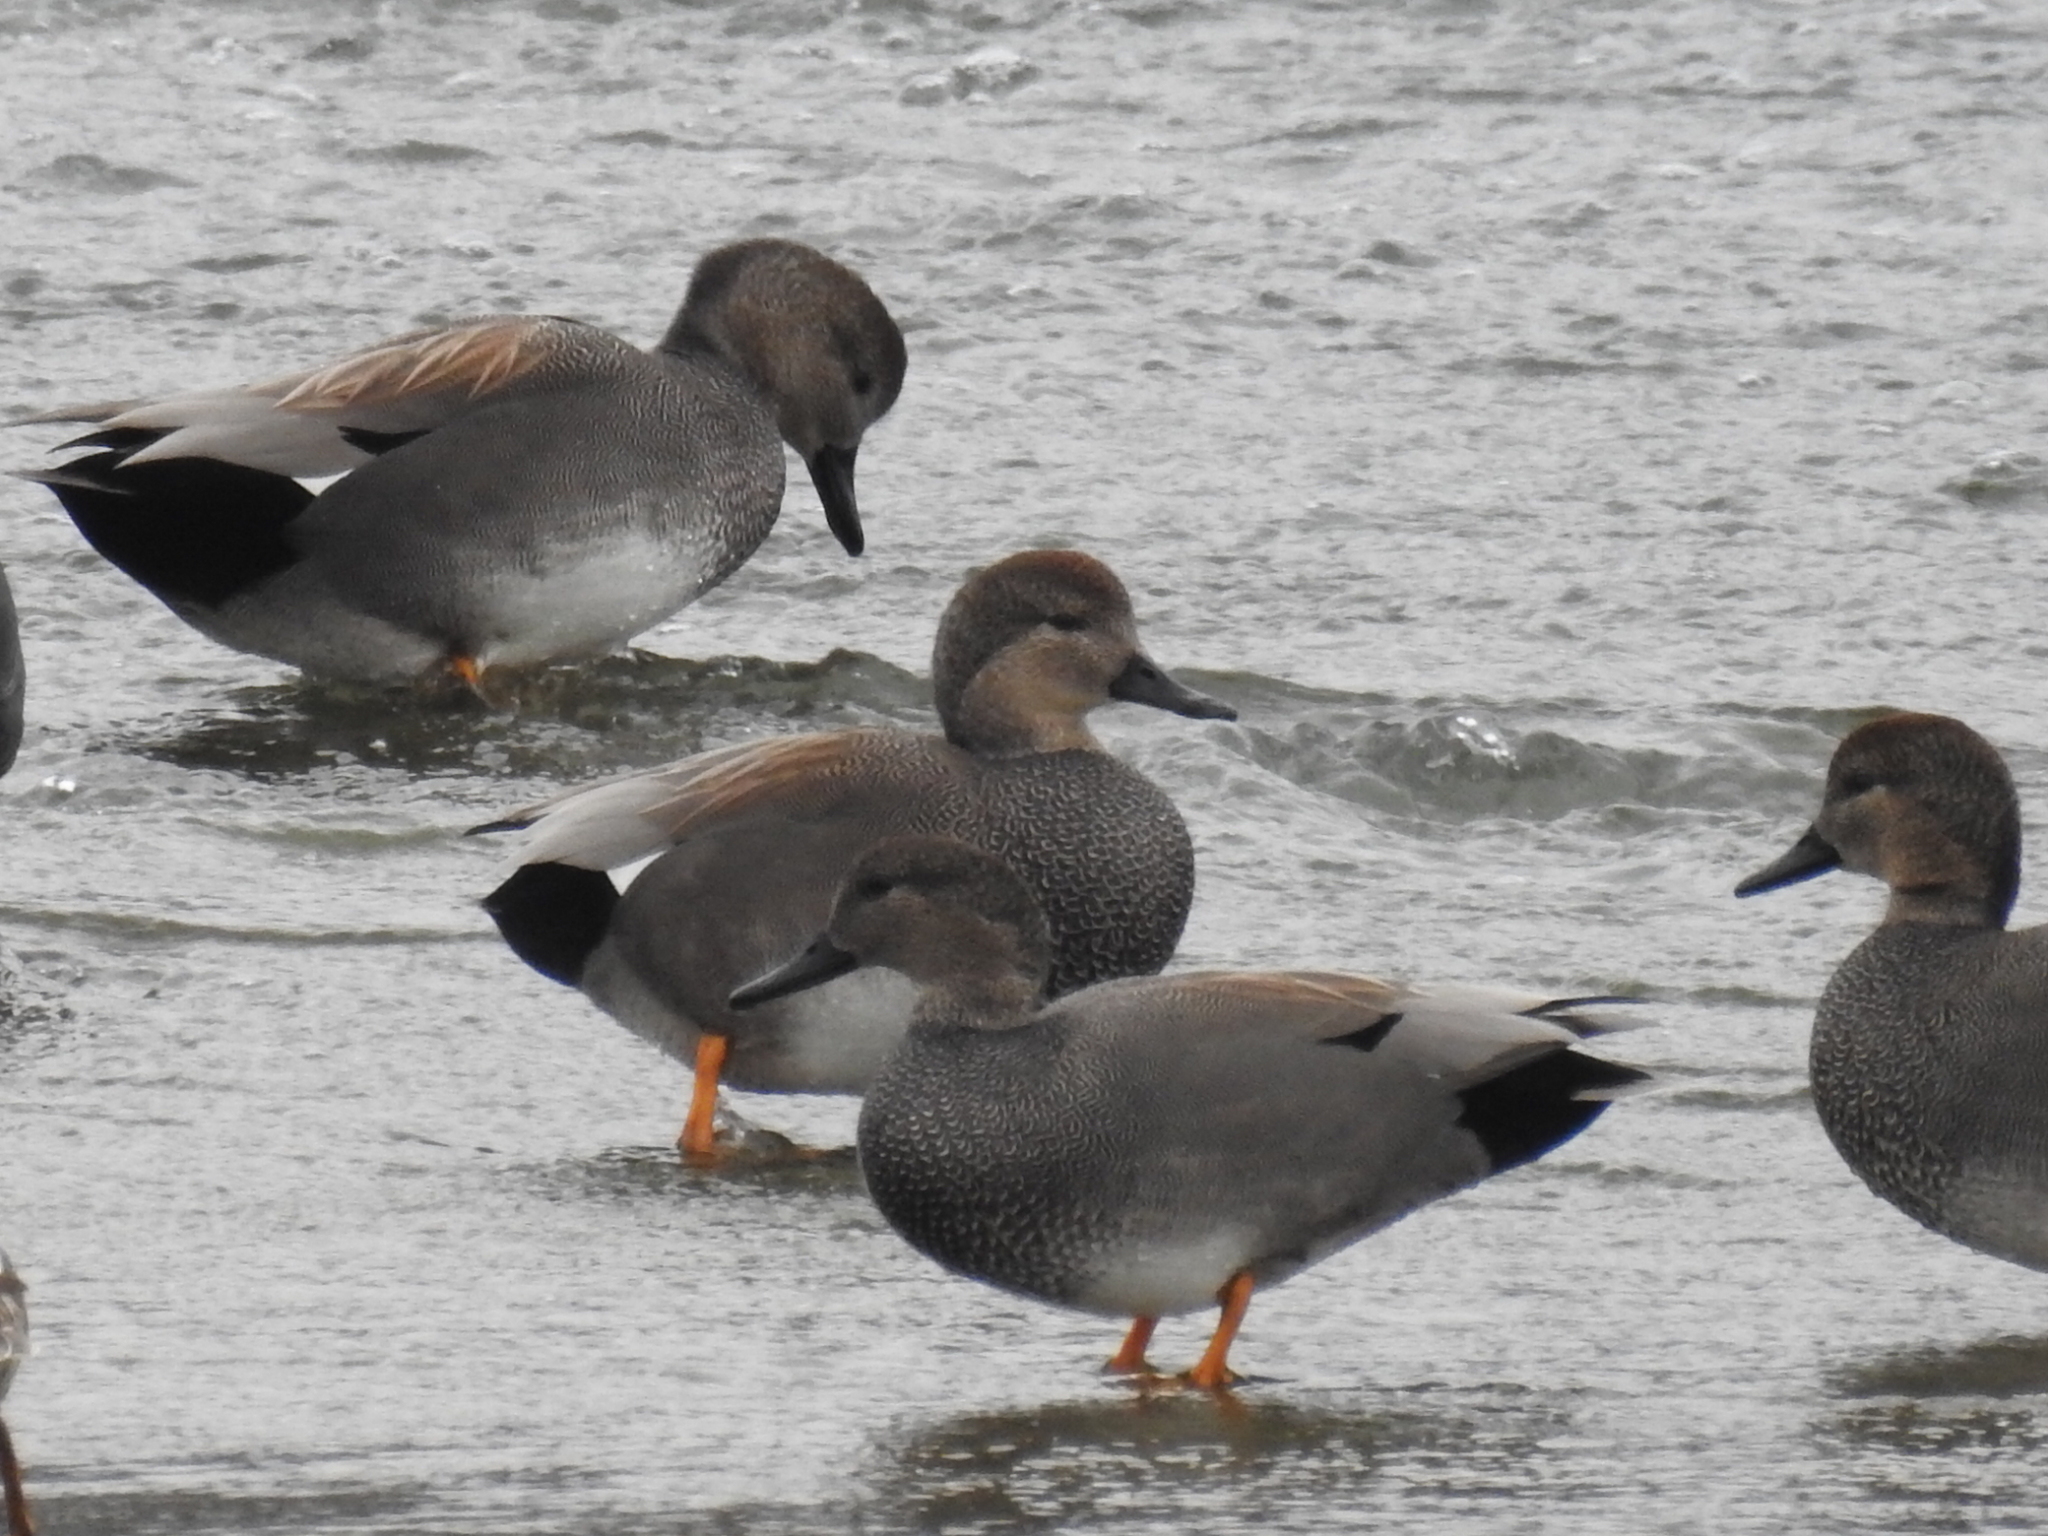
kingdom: Animalia
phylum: Chordata
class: Aves
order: Anseriformes
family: Anatidae
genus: Mareca
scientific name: Mareca strepera
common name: Gadwall
